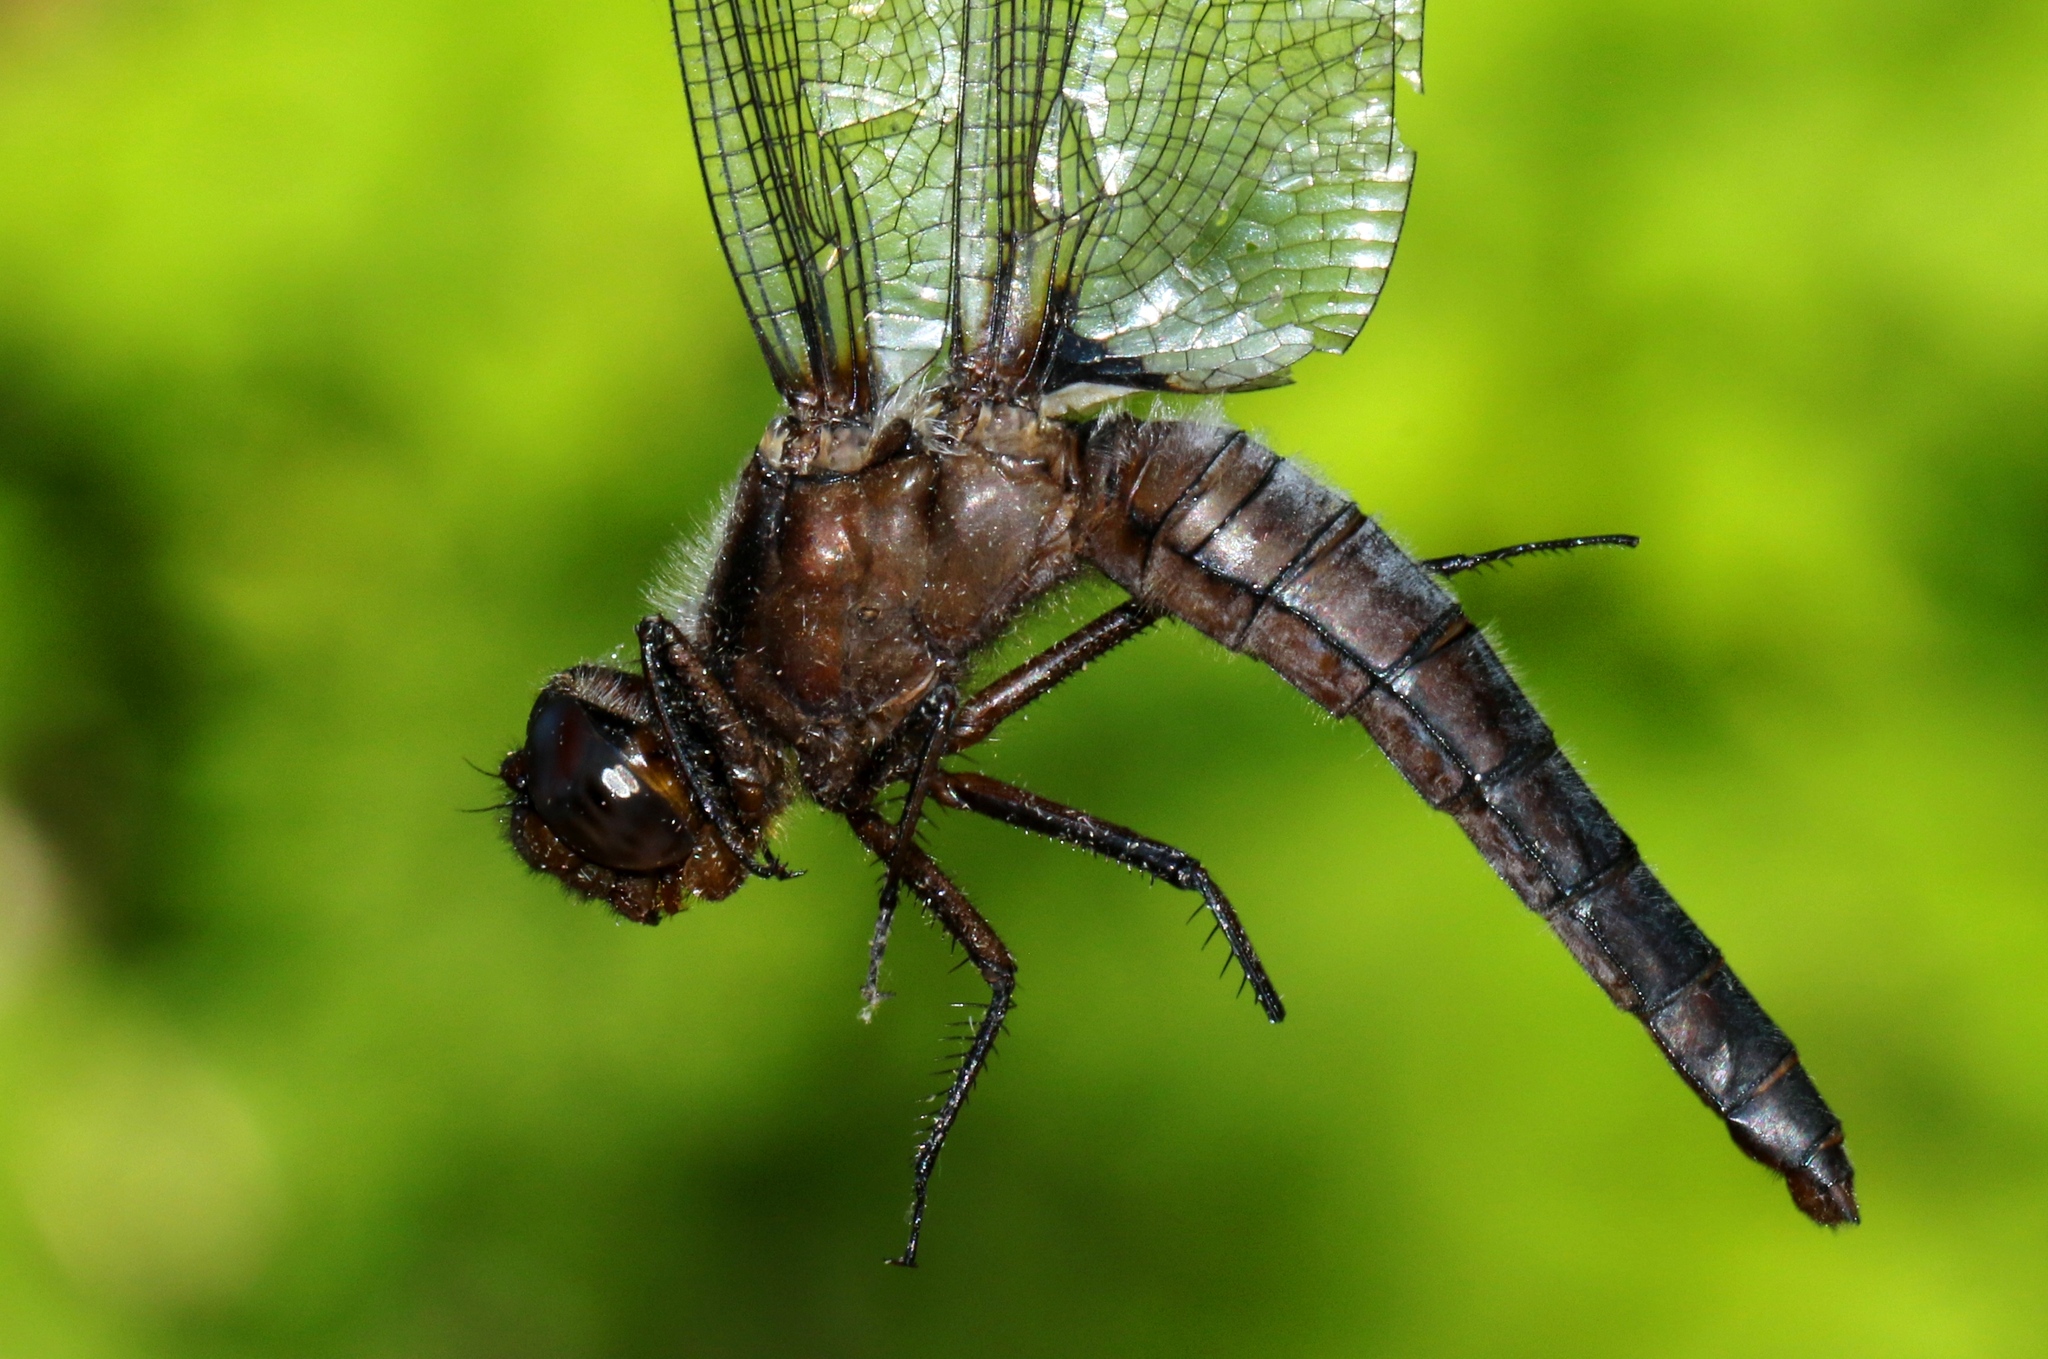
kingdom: Animalia
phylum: Arthropoda
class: Insecta
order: Odonata
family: Libellulidae
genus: Ladona
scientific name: Ladona julia
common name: Chalk-fronted corporal
